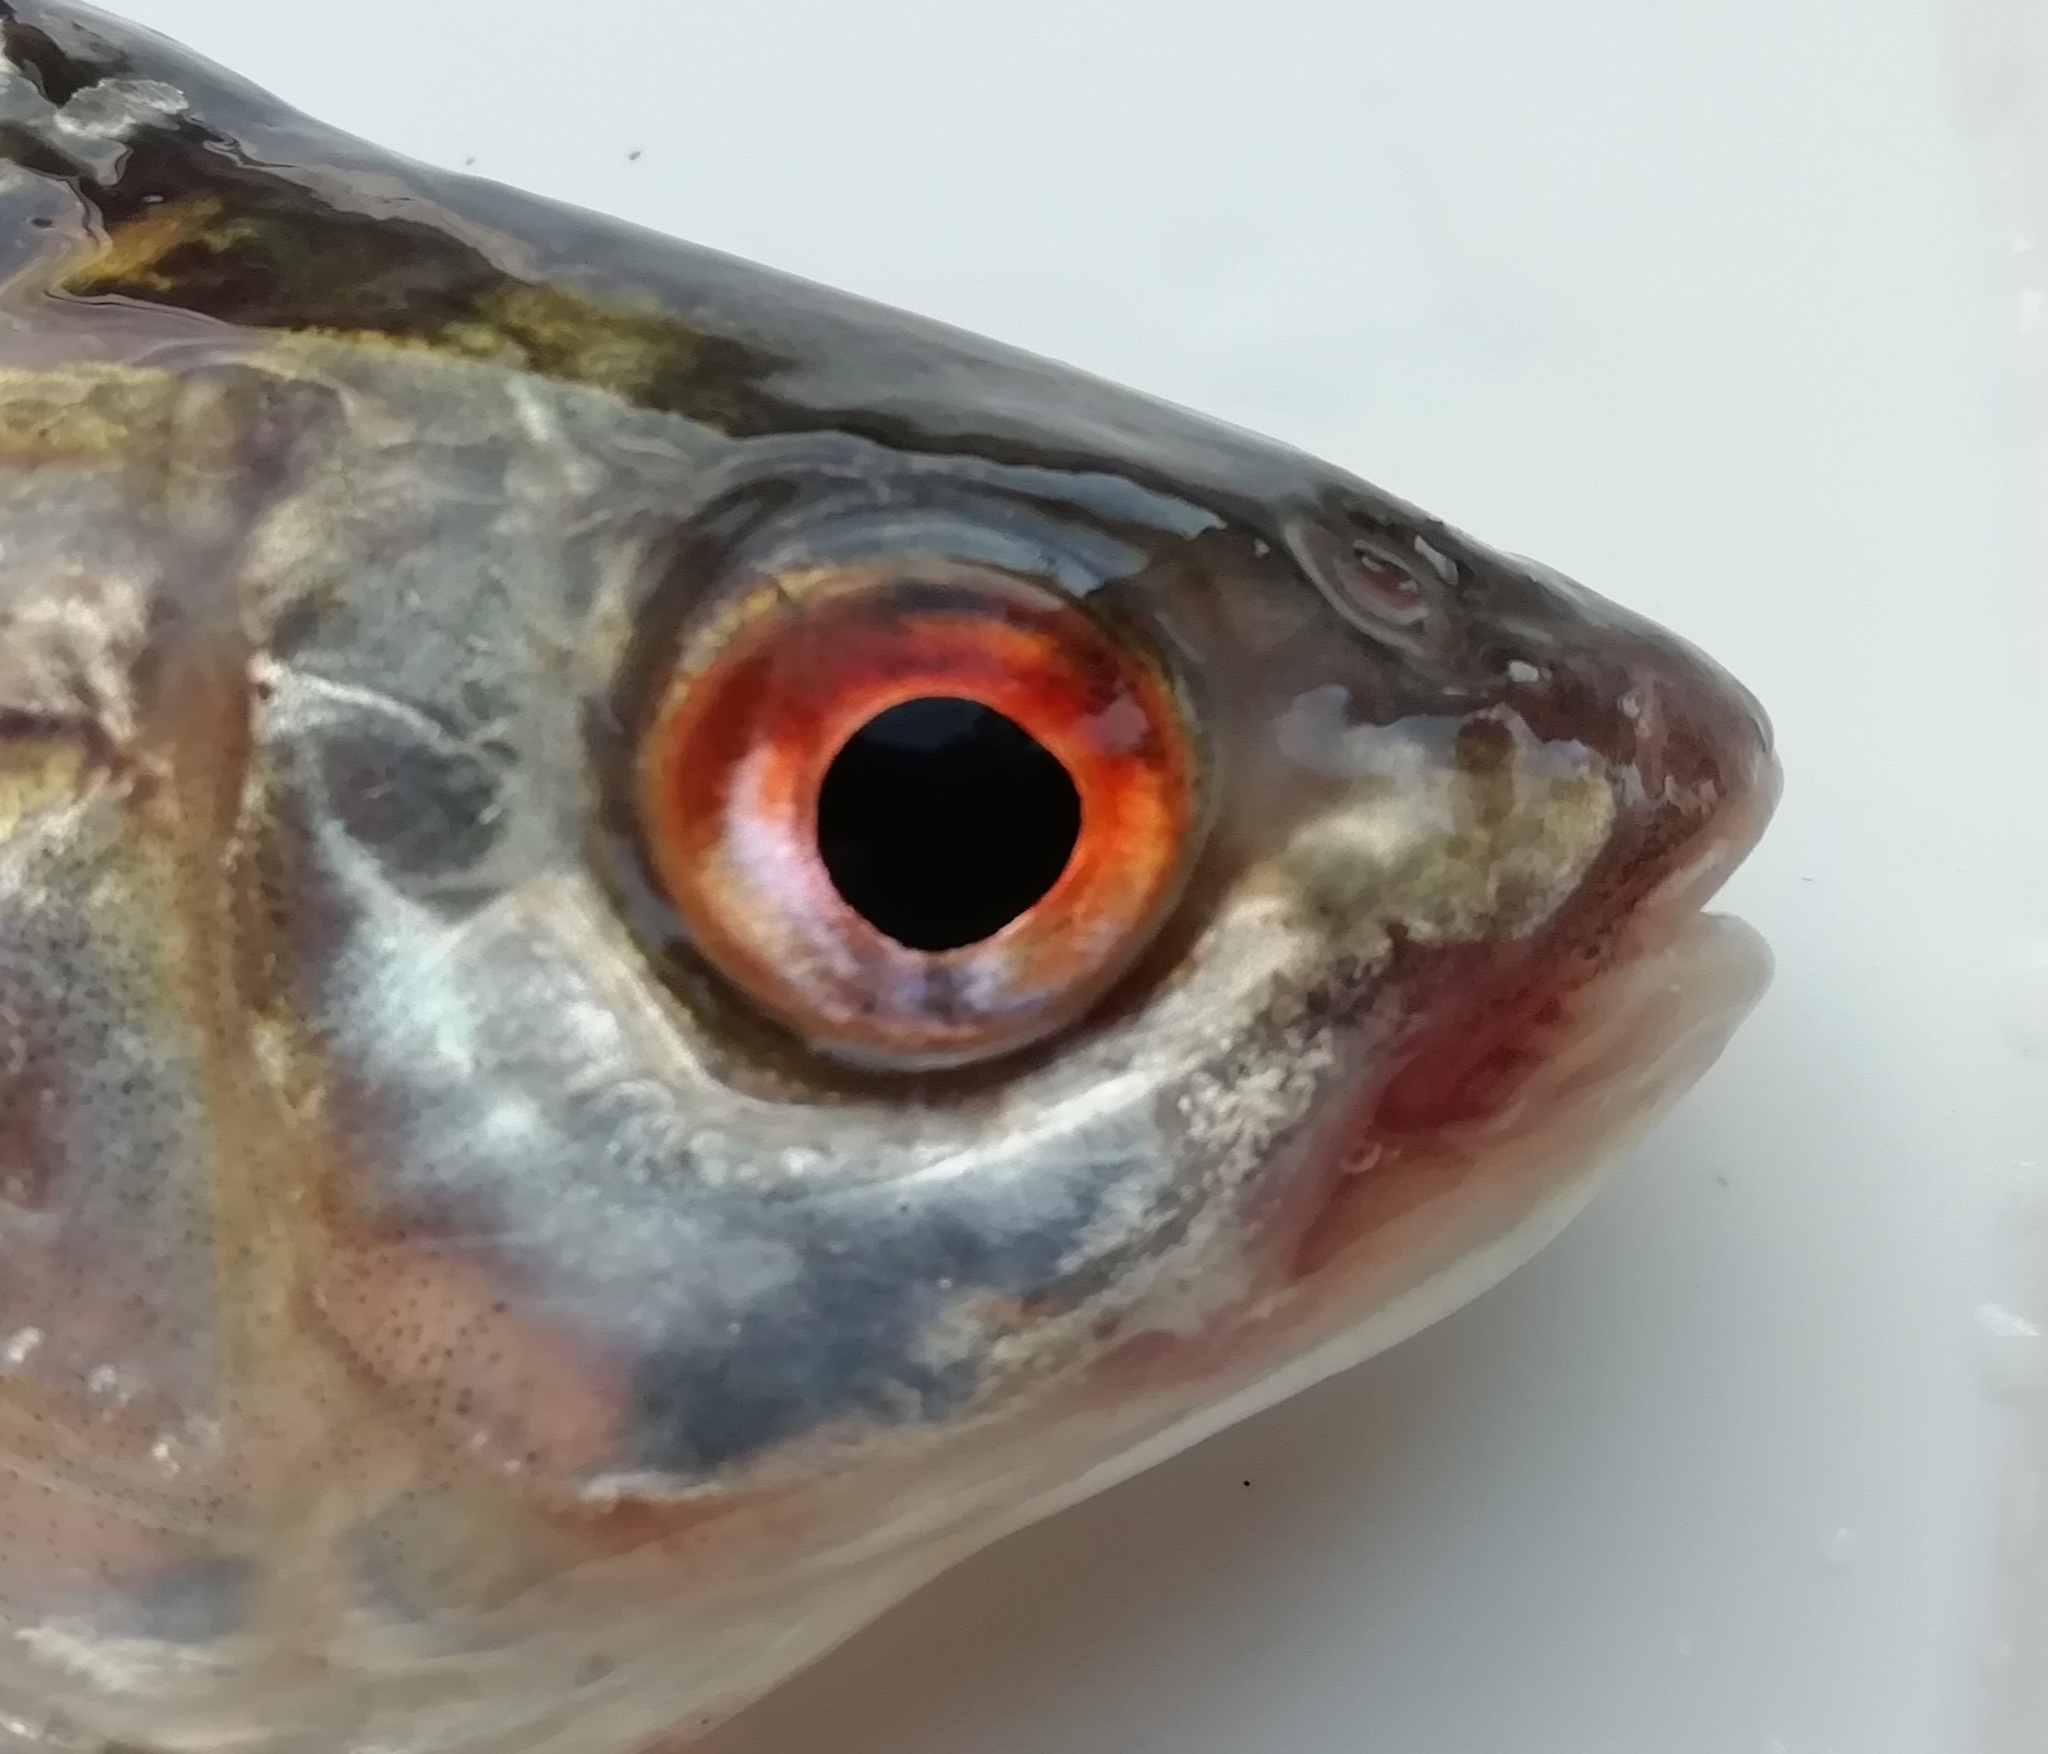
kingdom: Animalia
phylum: Chordata
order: Cypriniformes
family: Cyprinidae
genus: Rutilus
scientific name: Rutilus rutilus
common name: Roach
